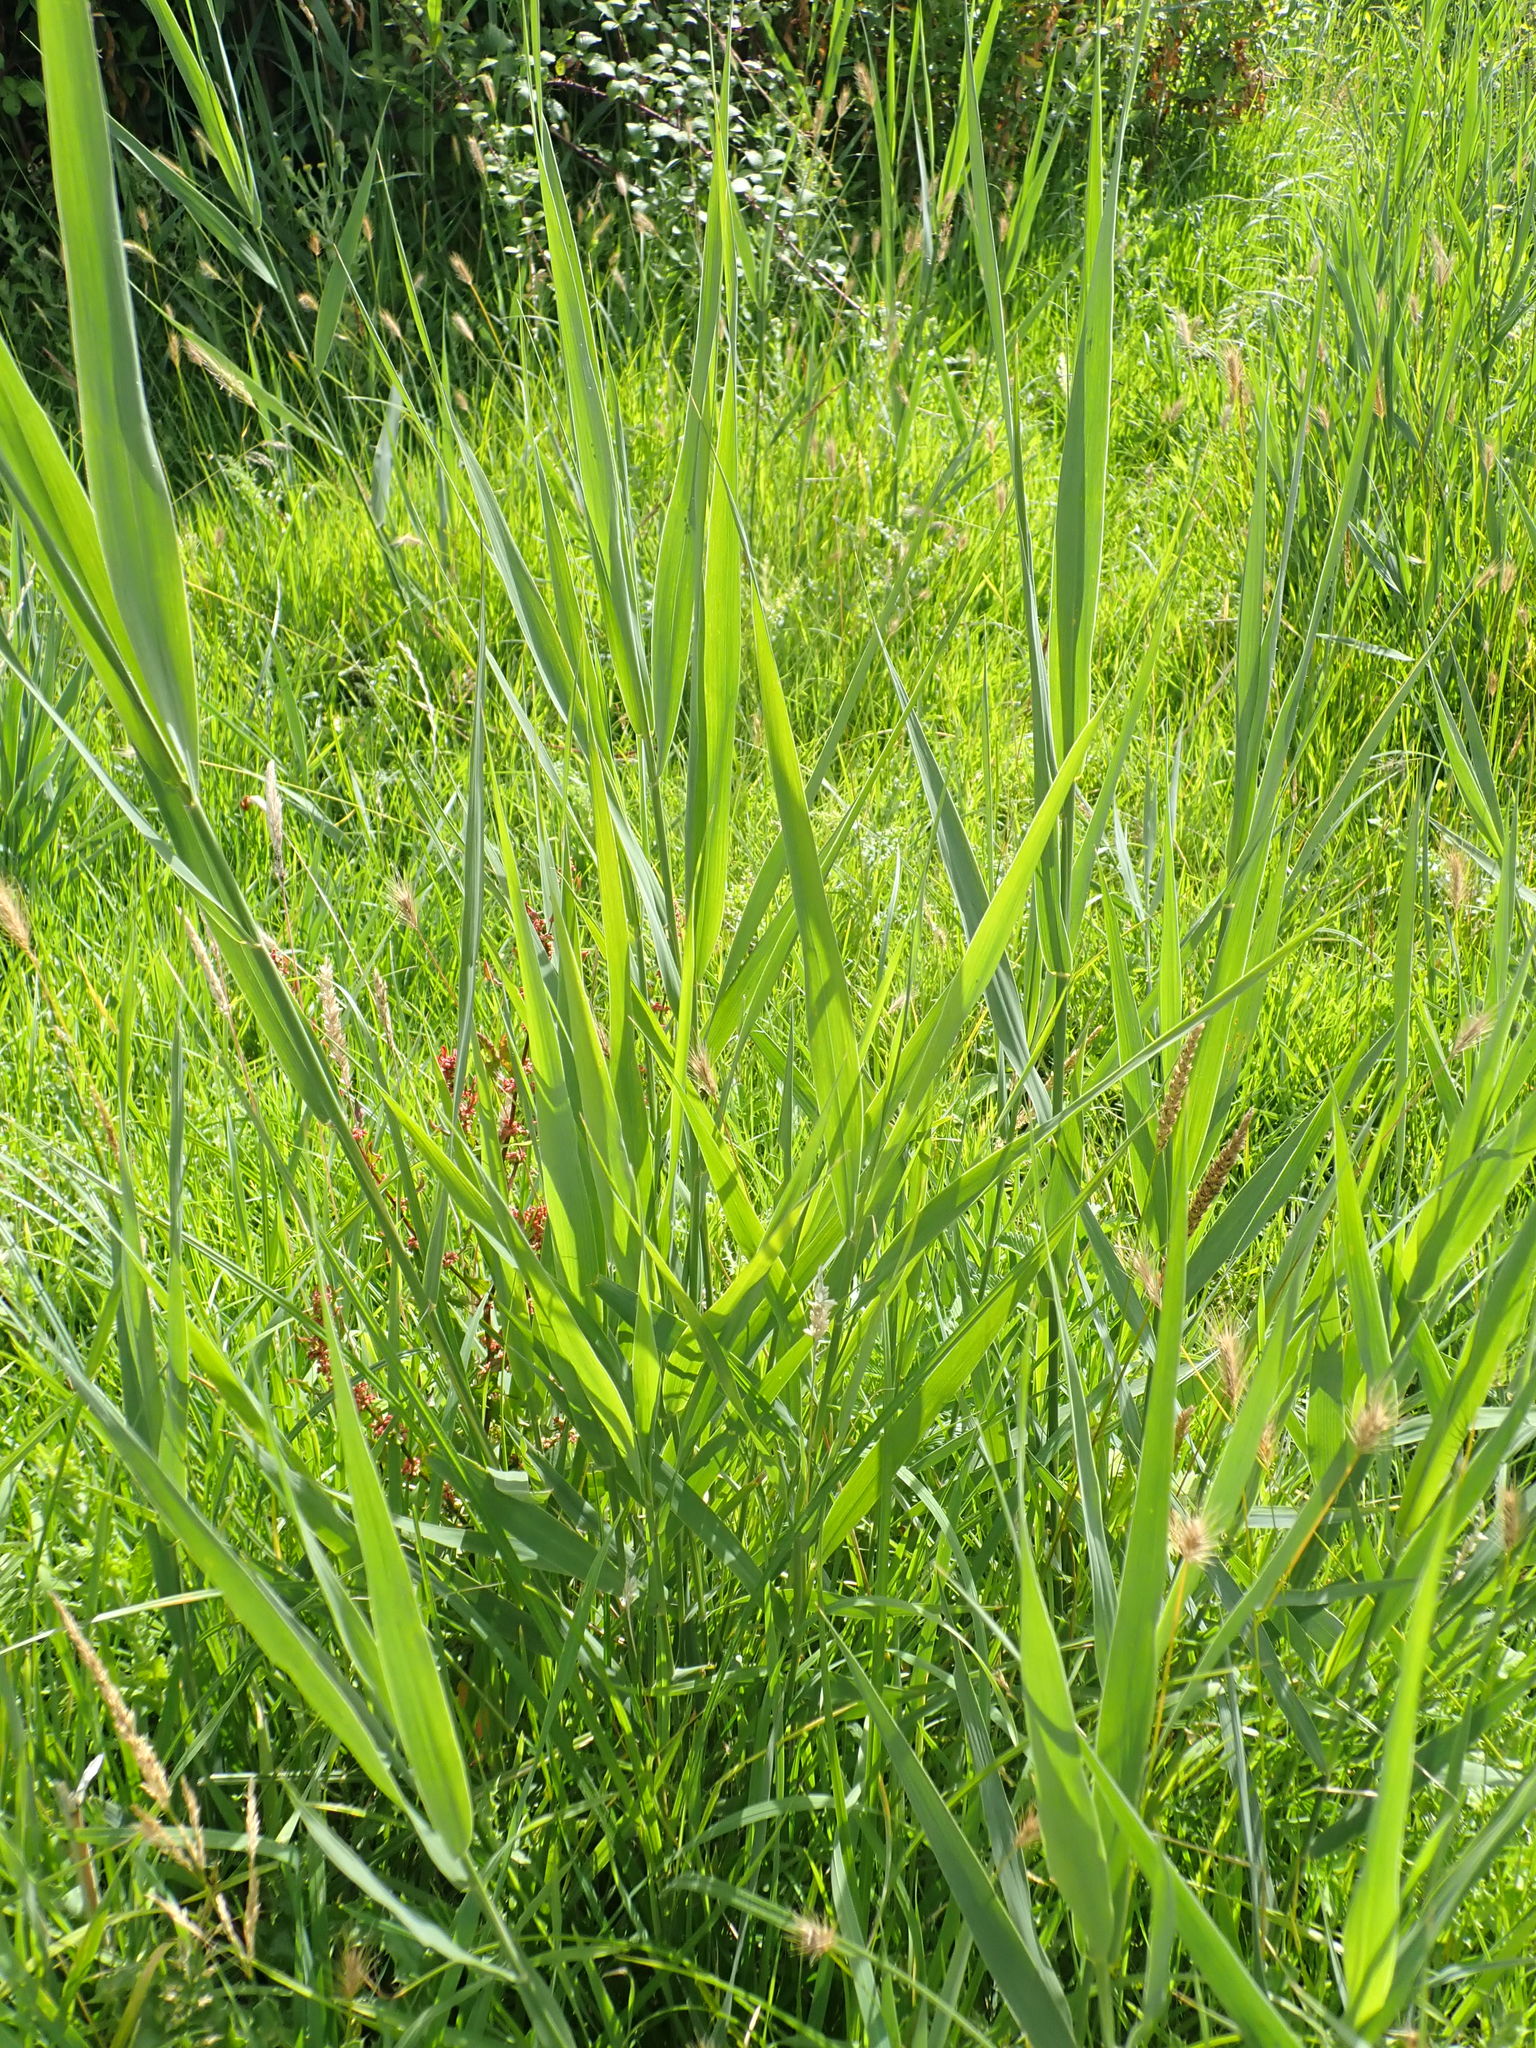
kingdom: Plantae
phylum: Tracheophyta
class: Liliopsida
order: Poales
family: Poaceae
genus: Phragmites
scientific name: Phragmites australis
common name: Common reed
